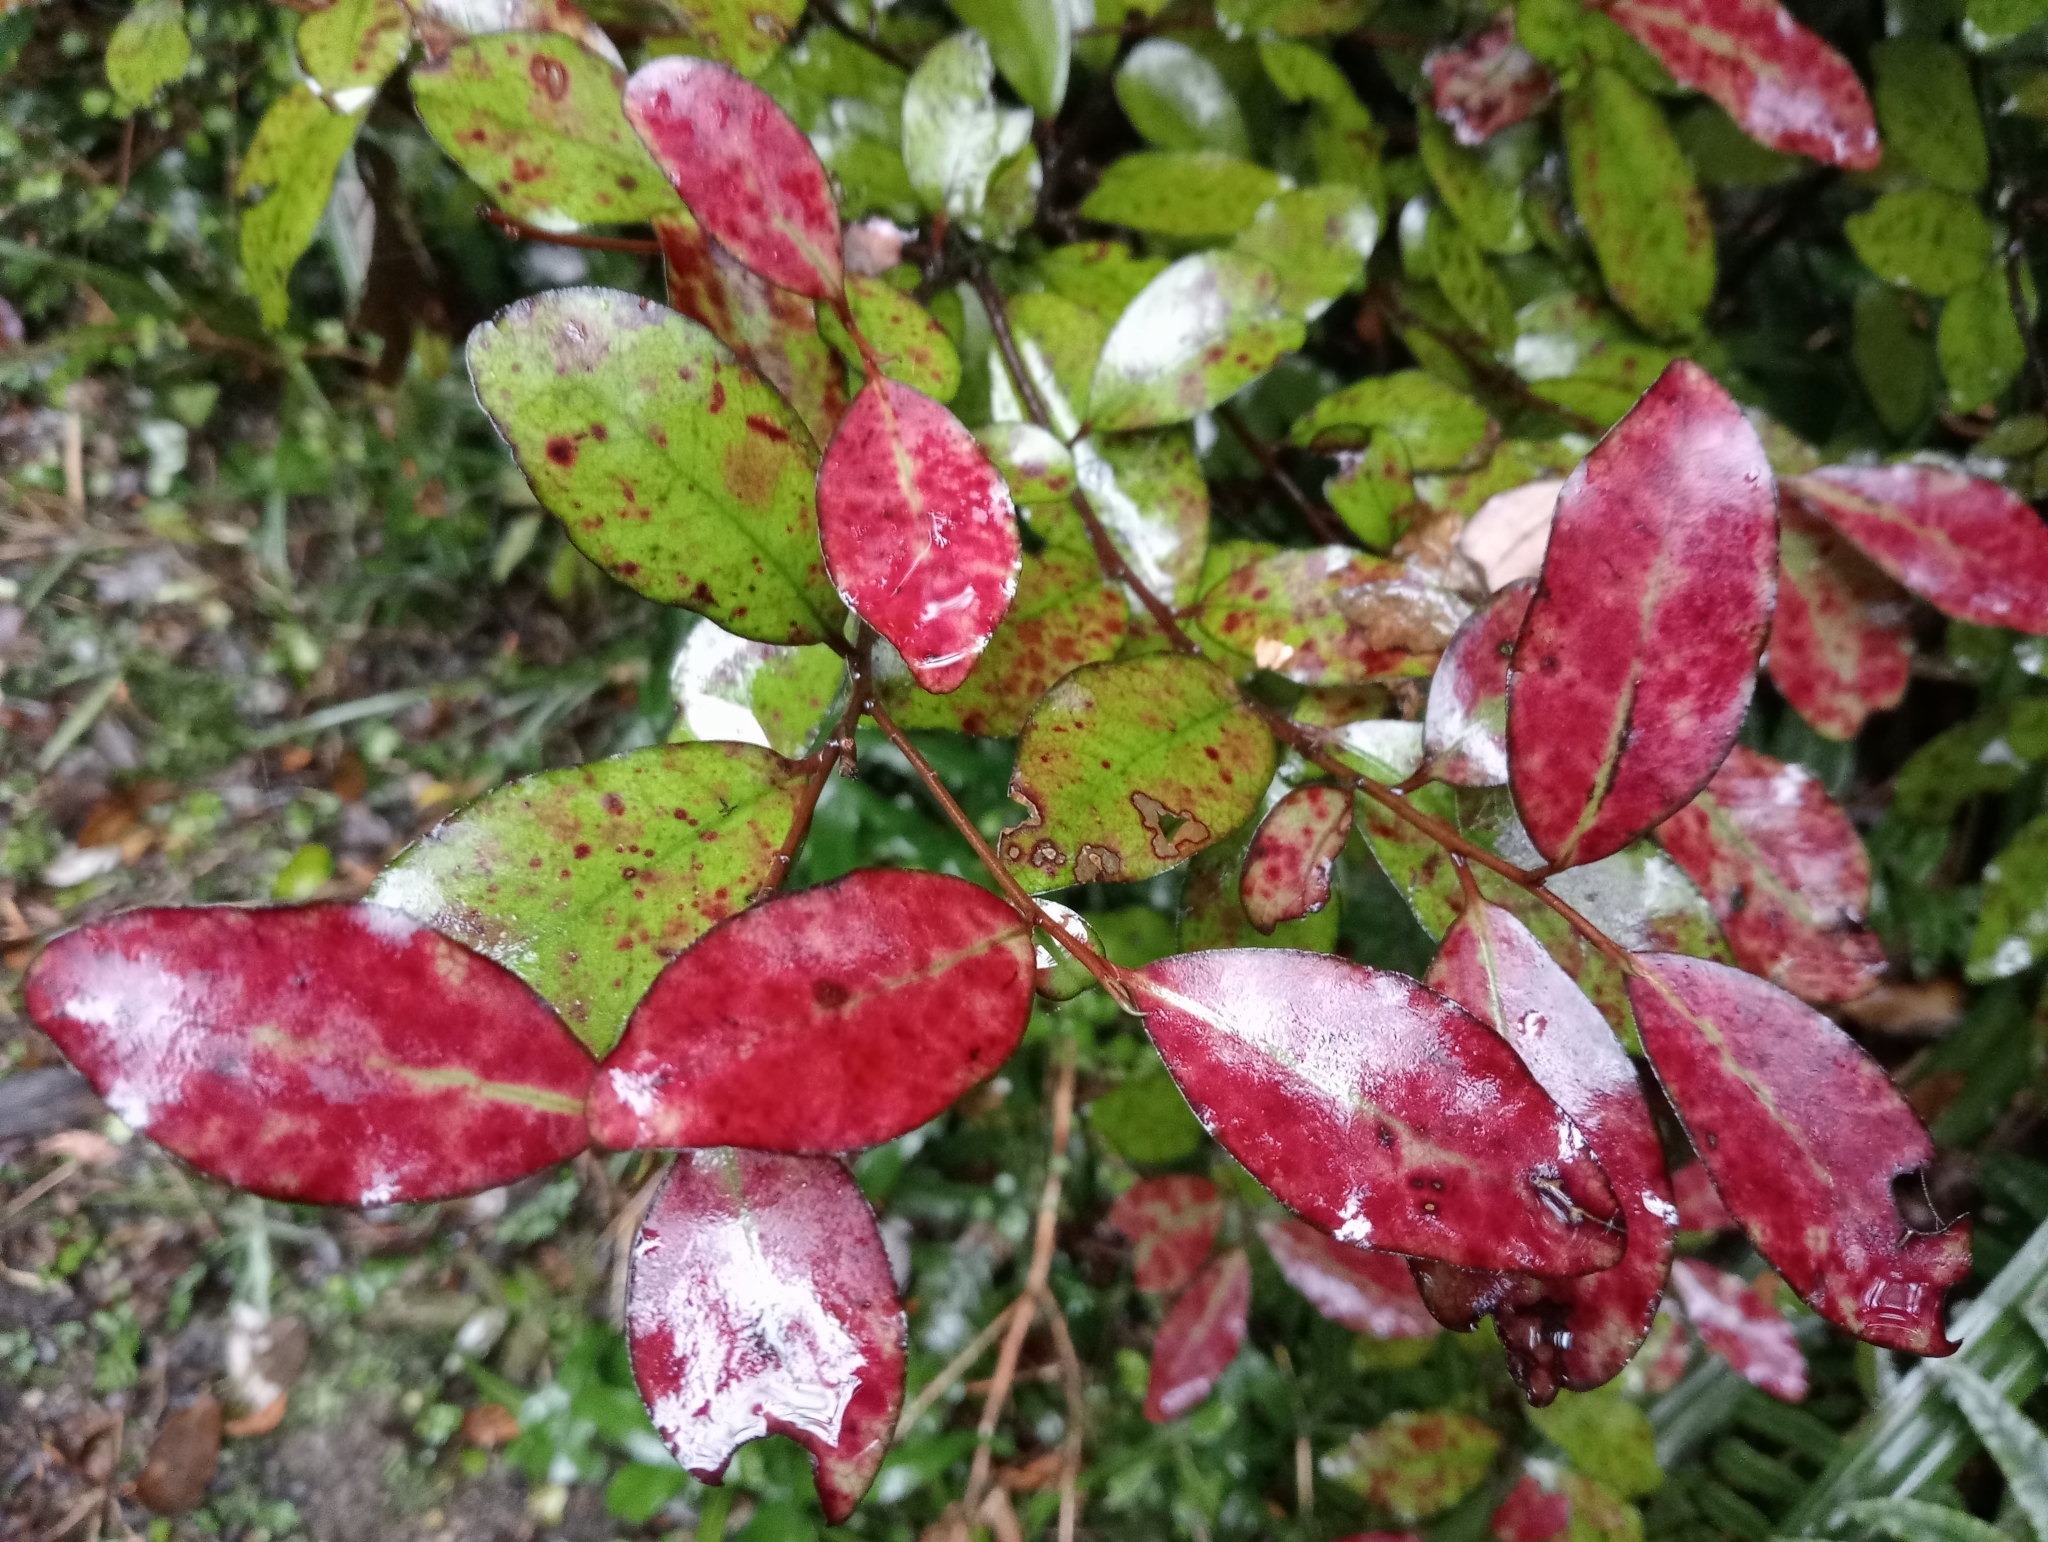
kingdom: Plantae
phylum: Tracheophyta
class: Magnoliopsida
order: Canellales
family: Winteraceae
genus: Pseudowintera
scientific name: Pseudowintera colorata
